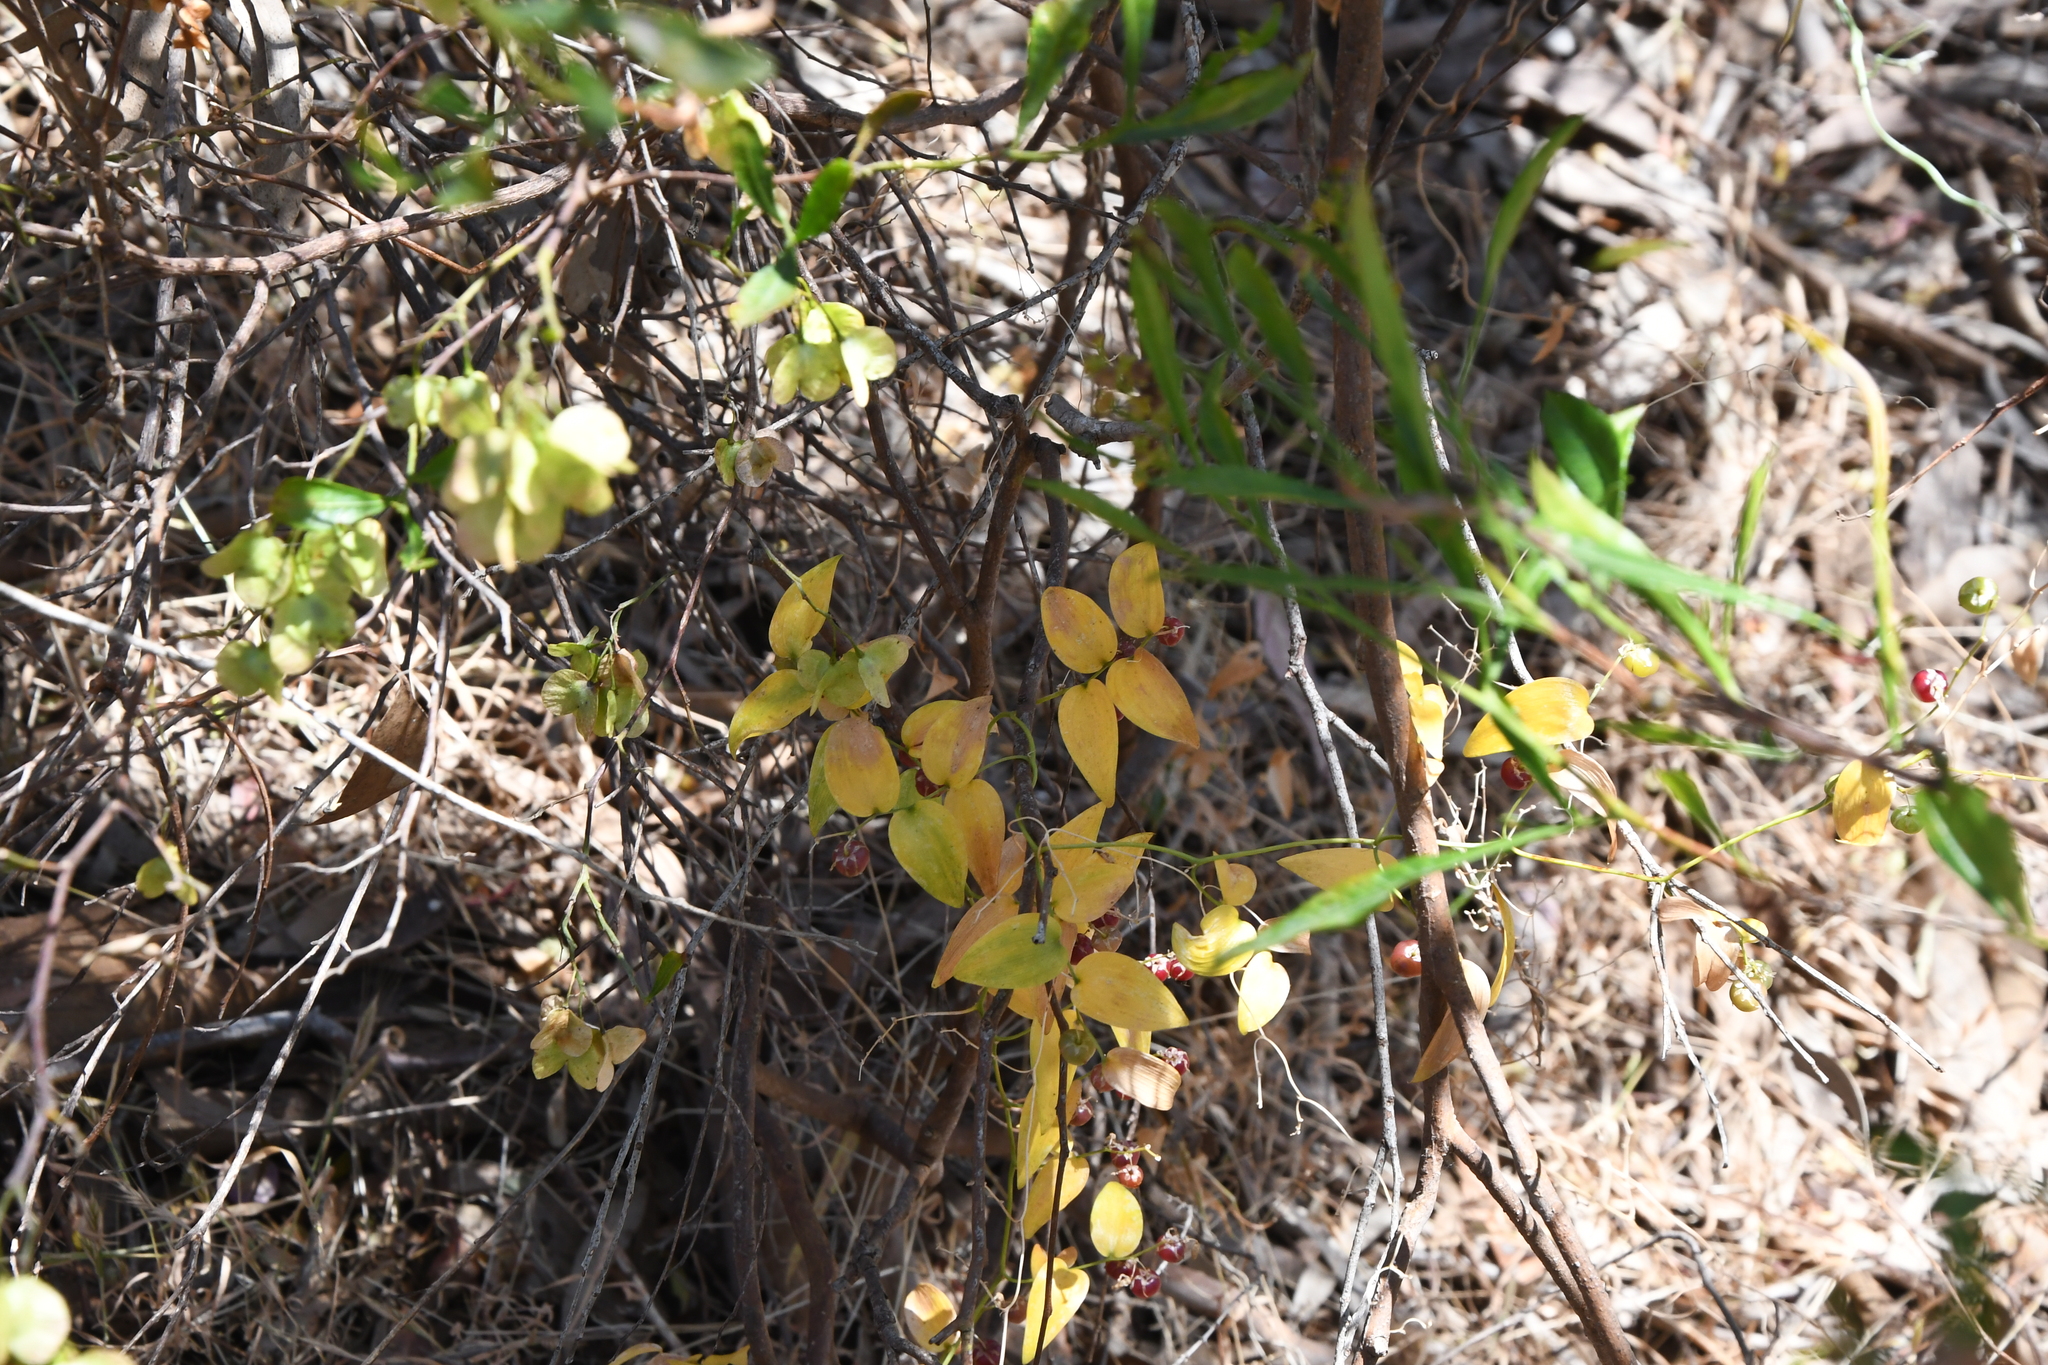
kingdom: Plantae
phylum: Tracheophyta
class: Liliopsida
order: Asparagales
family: Asparagaceae
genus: Asparagus
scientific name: Asparagus asparagoides
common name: African asparagus fern
